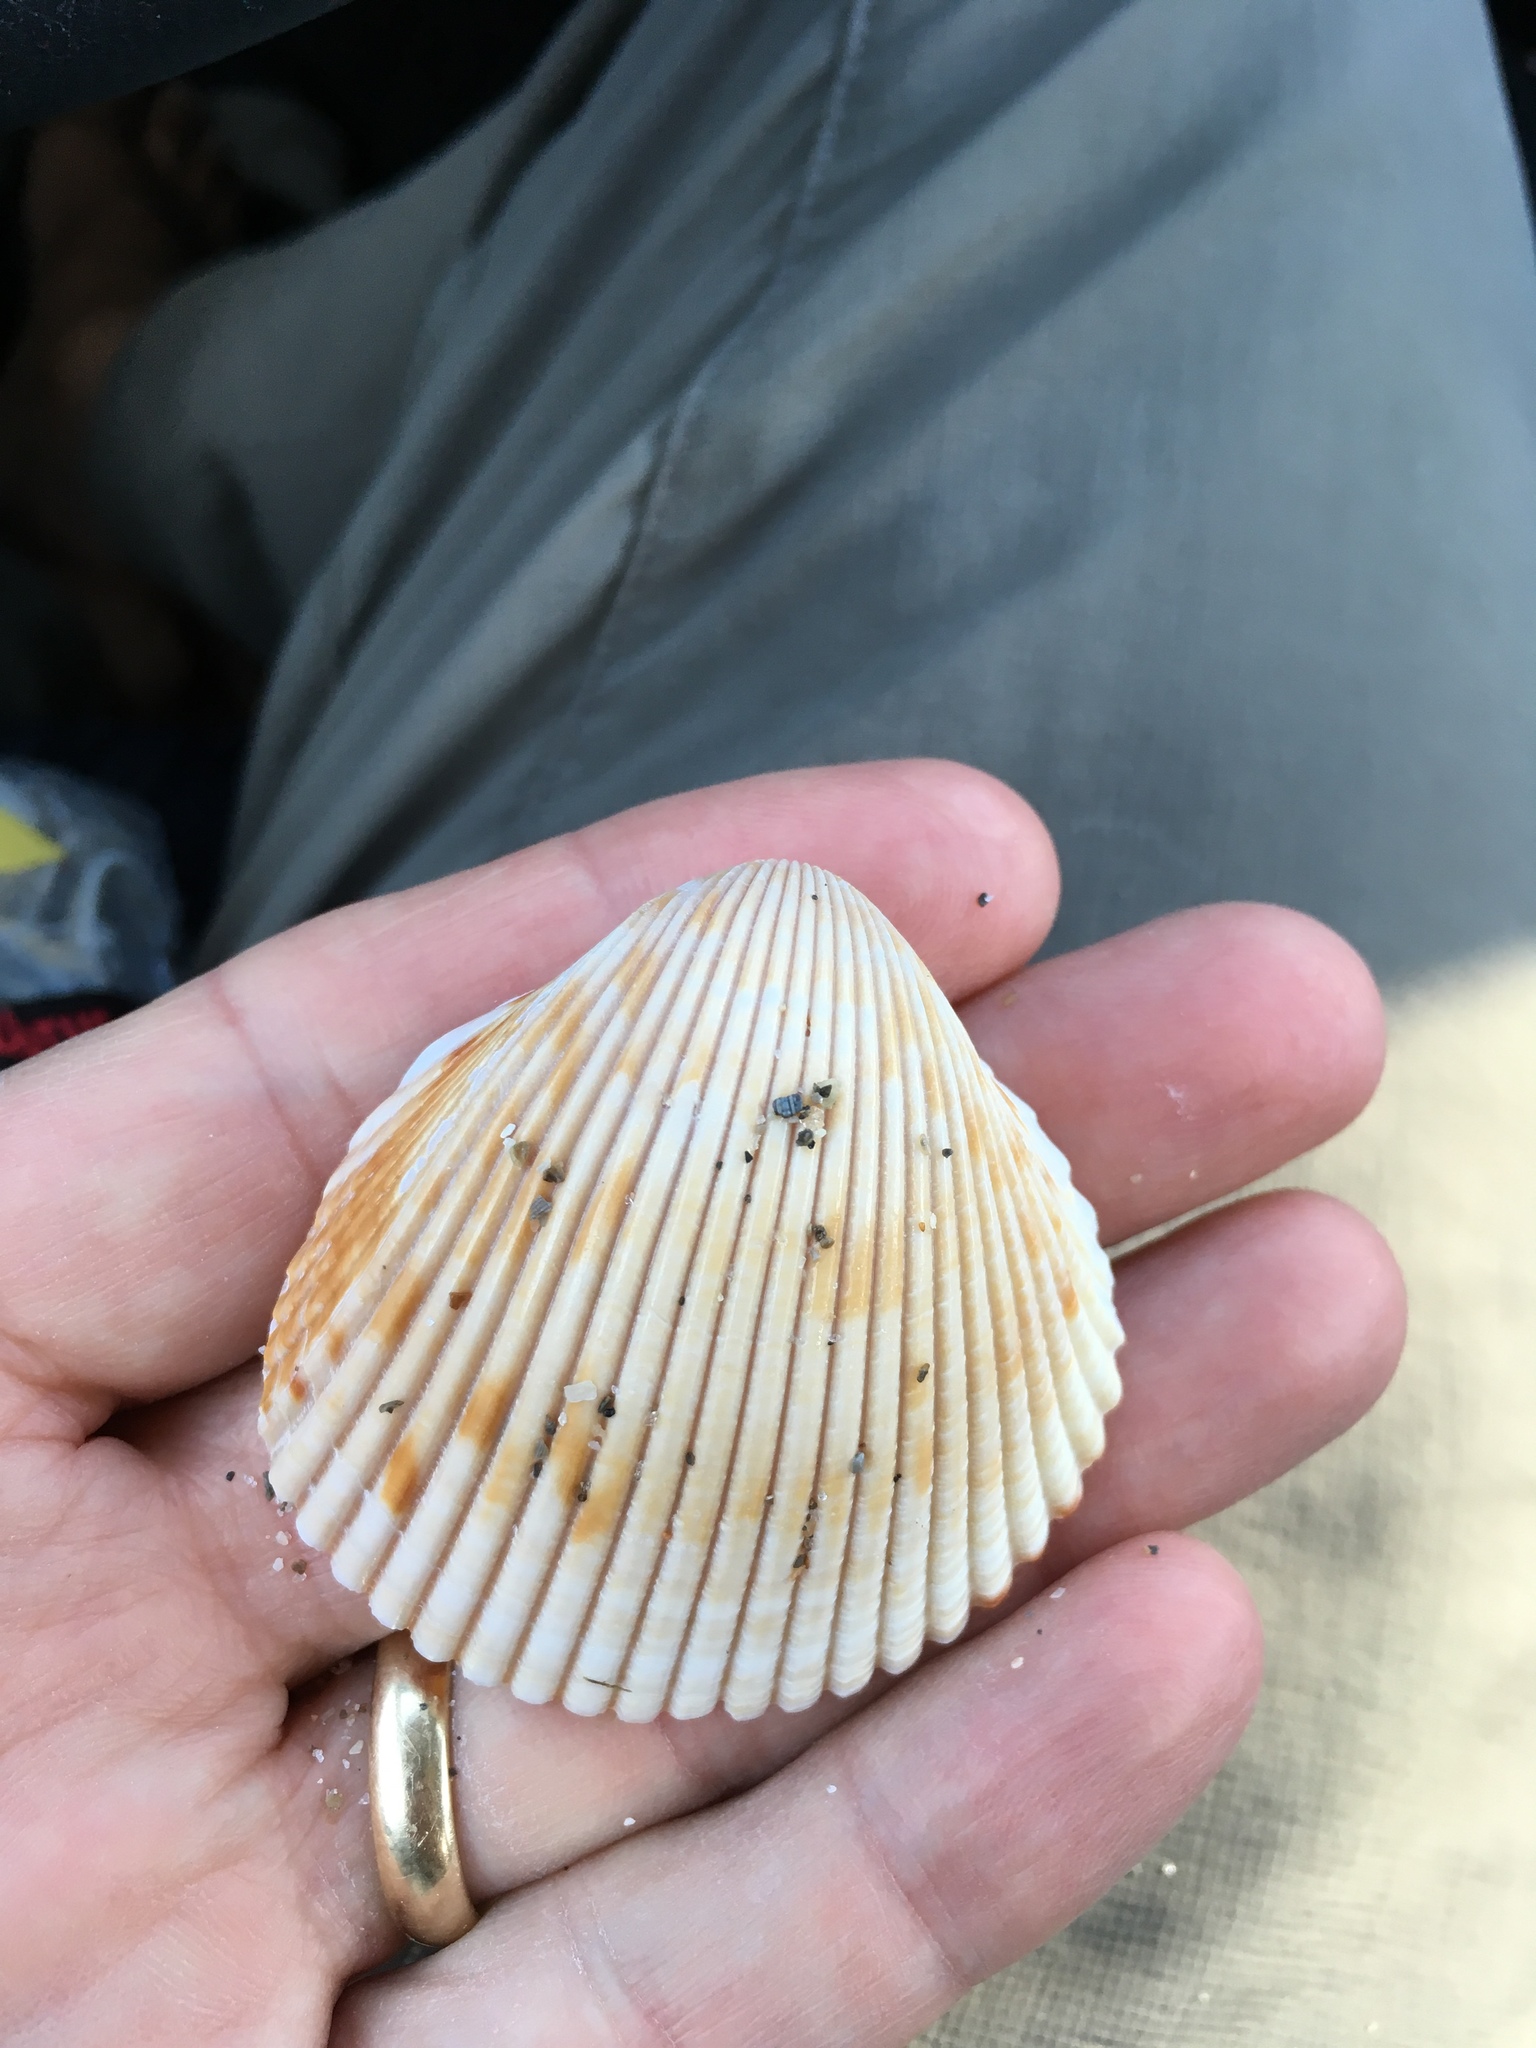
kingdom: Animalia
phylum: Mollusca
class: Bivalvia
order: Cardiida
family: Cardiidae
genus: Dinocardium
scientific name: Dinocardium robustum
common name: Atlantic giant cockle
